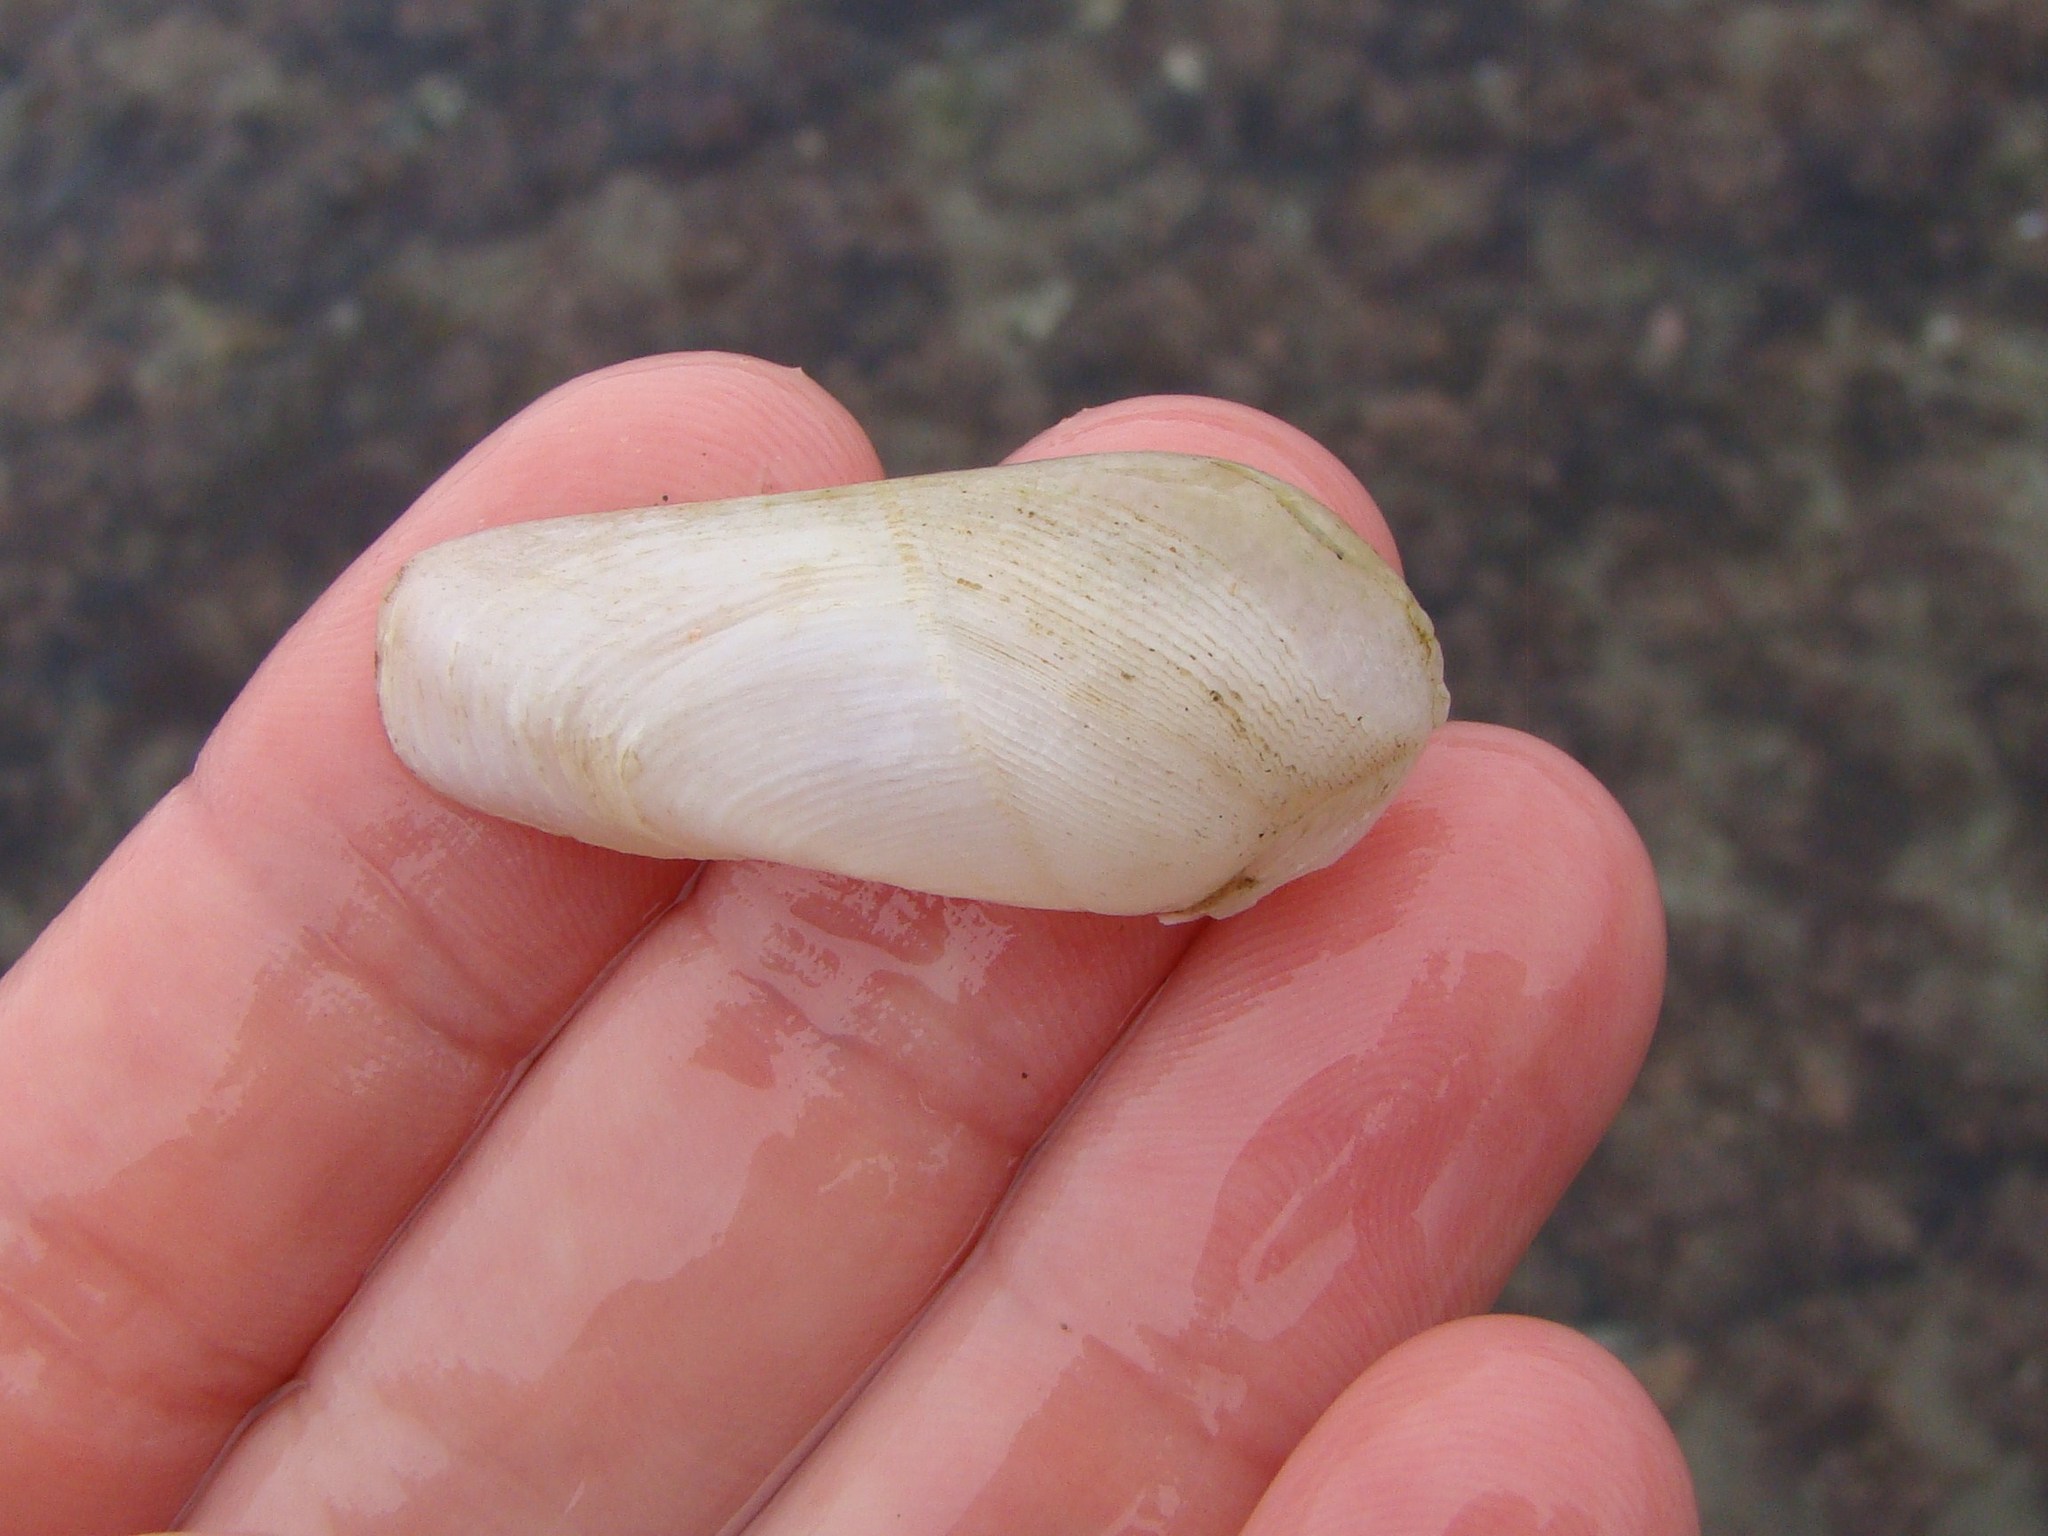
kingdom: Animalia
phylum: Mollusca
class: Bivalvia
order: Myida
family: Pholadidae
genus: Pholadidea
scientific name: Pholadidea suteri
